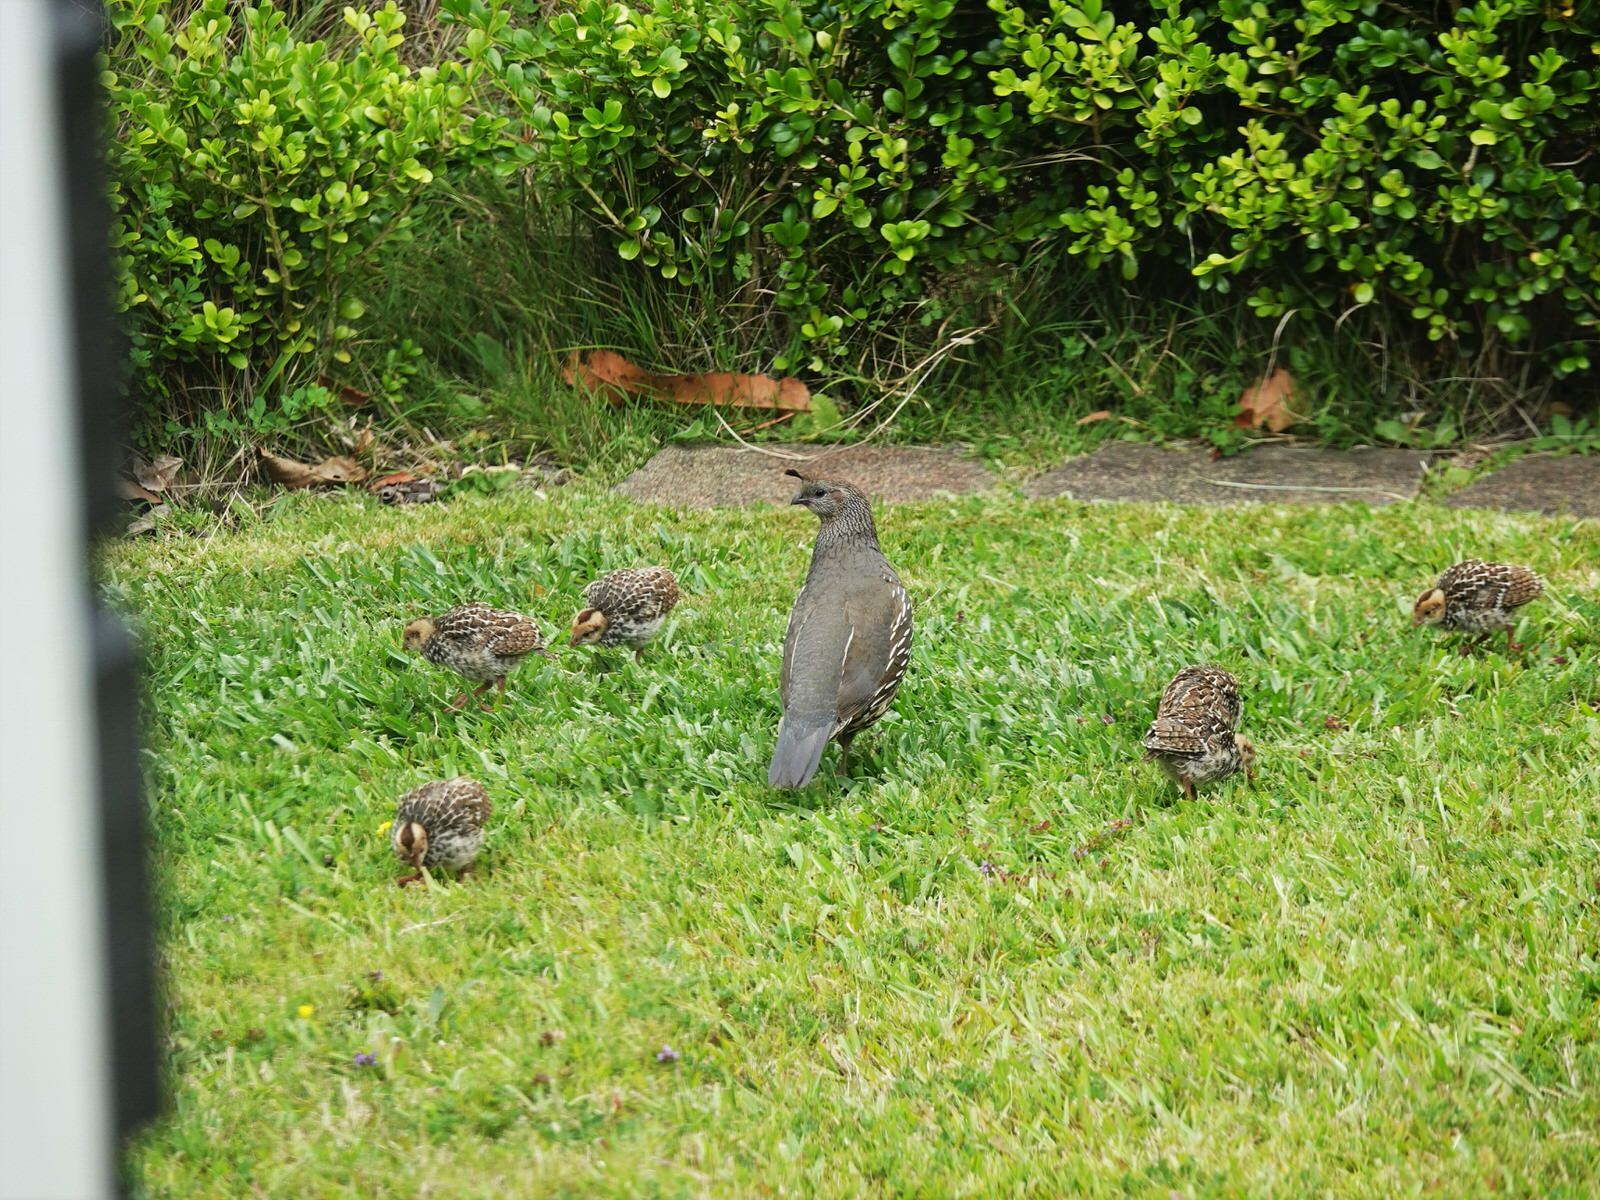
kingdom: Animalia
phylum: Chordata
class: Aves
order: Galliformes
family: Odontophoridae
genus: Callipepla
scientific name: Callipepla californica
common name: California quail
